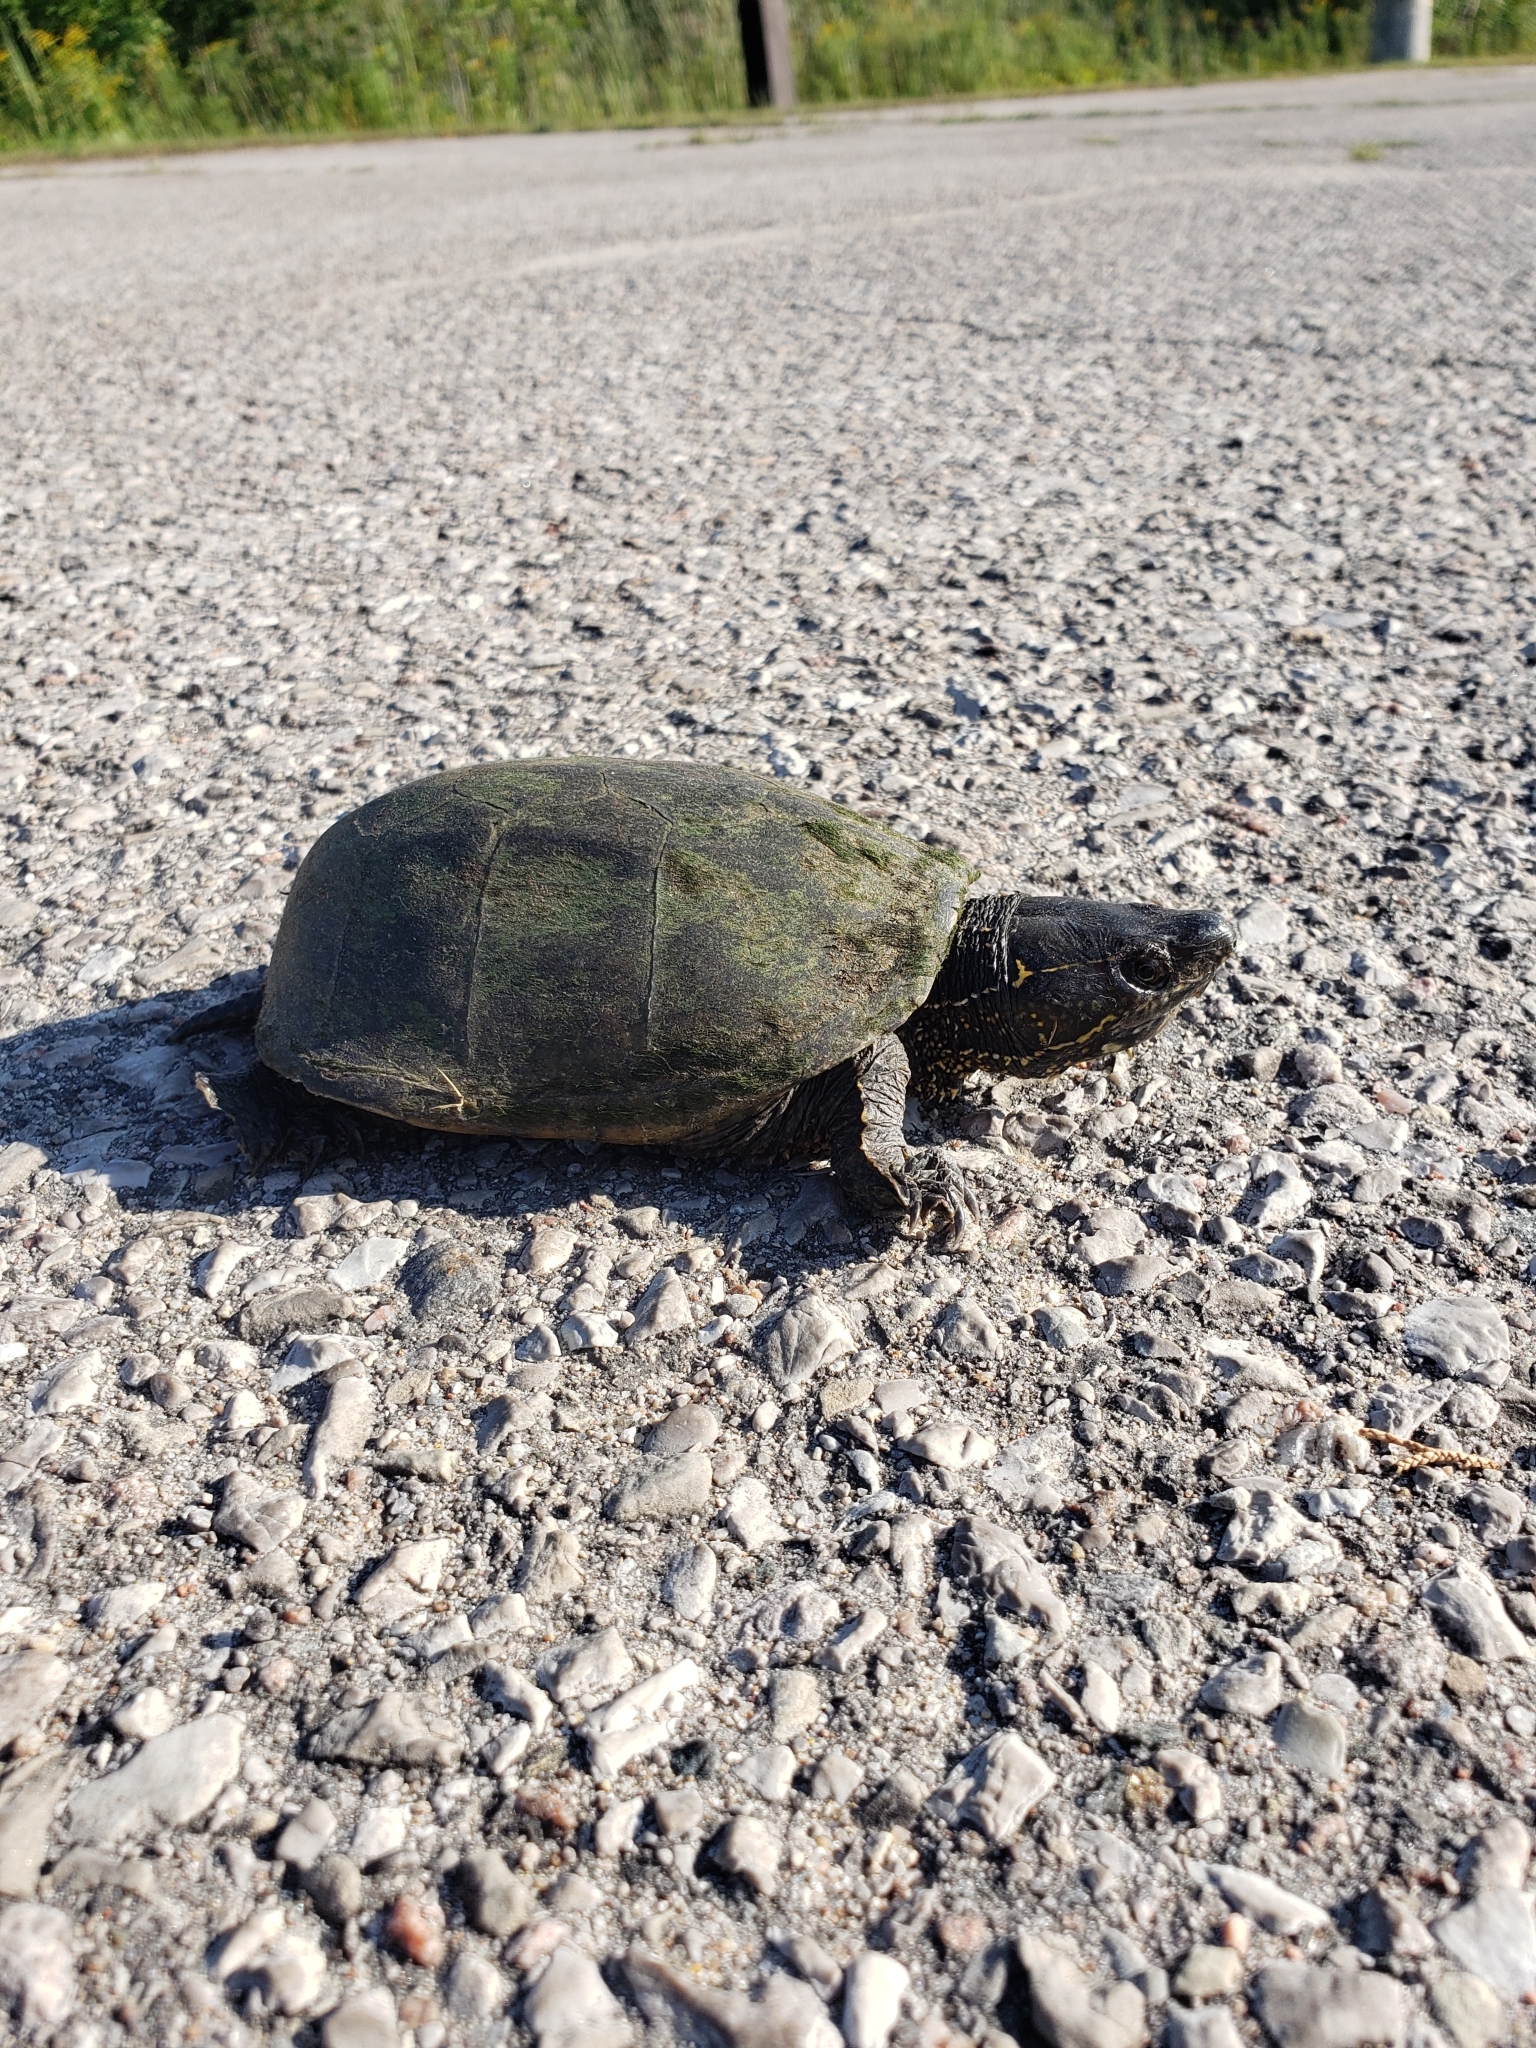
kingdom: Animalia
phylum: Chordata
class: Testudines
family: Kinosternidae
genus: Sternotherus
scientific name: Sternotherus odoratus
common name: Common musk turtle
